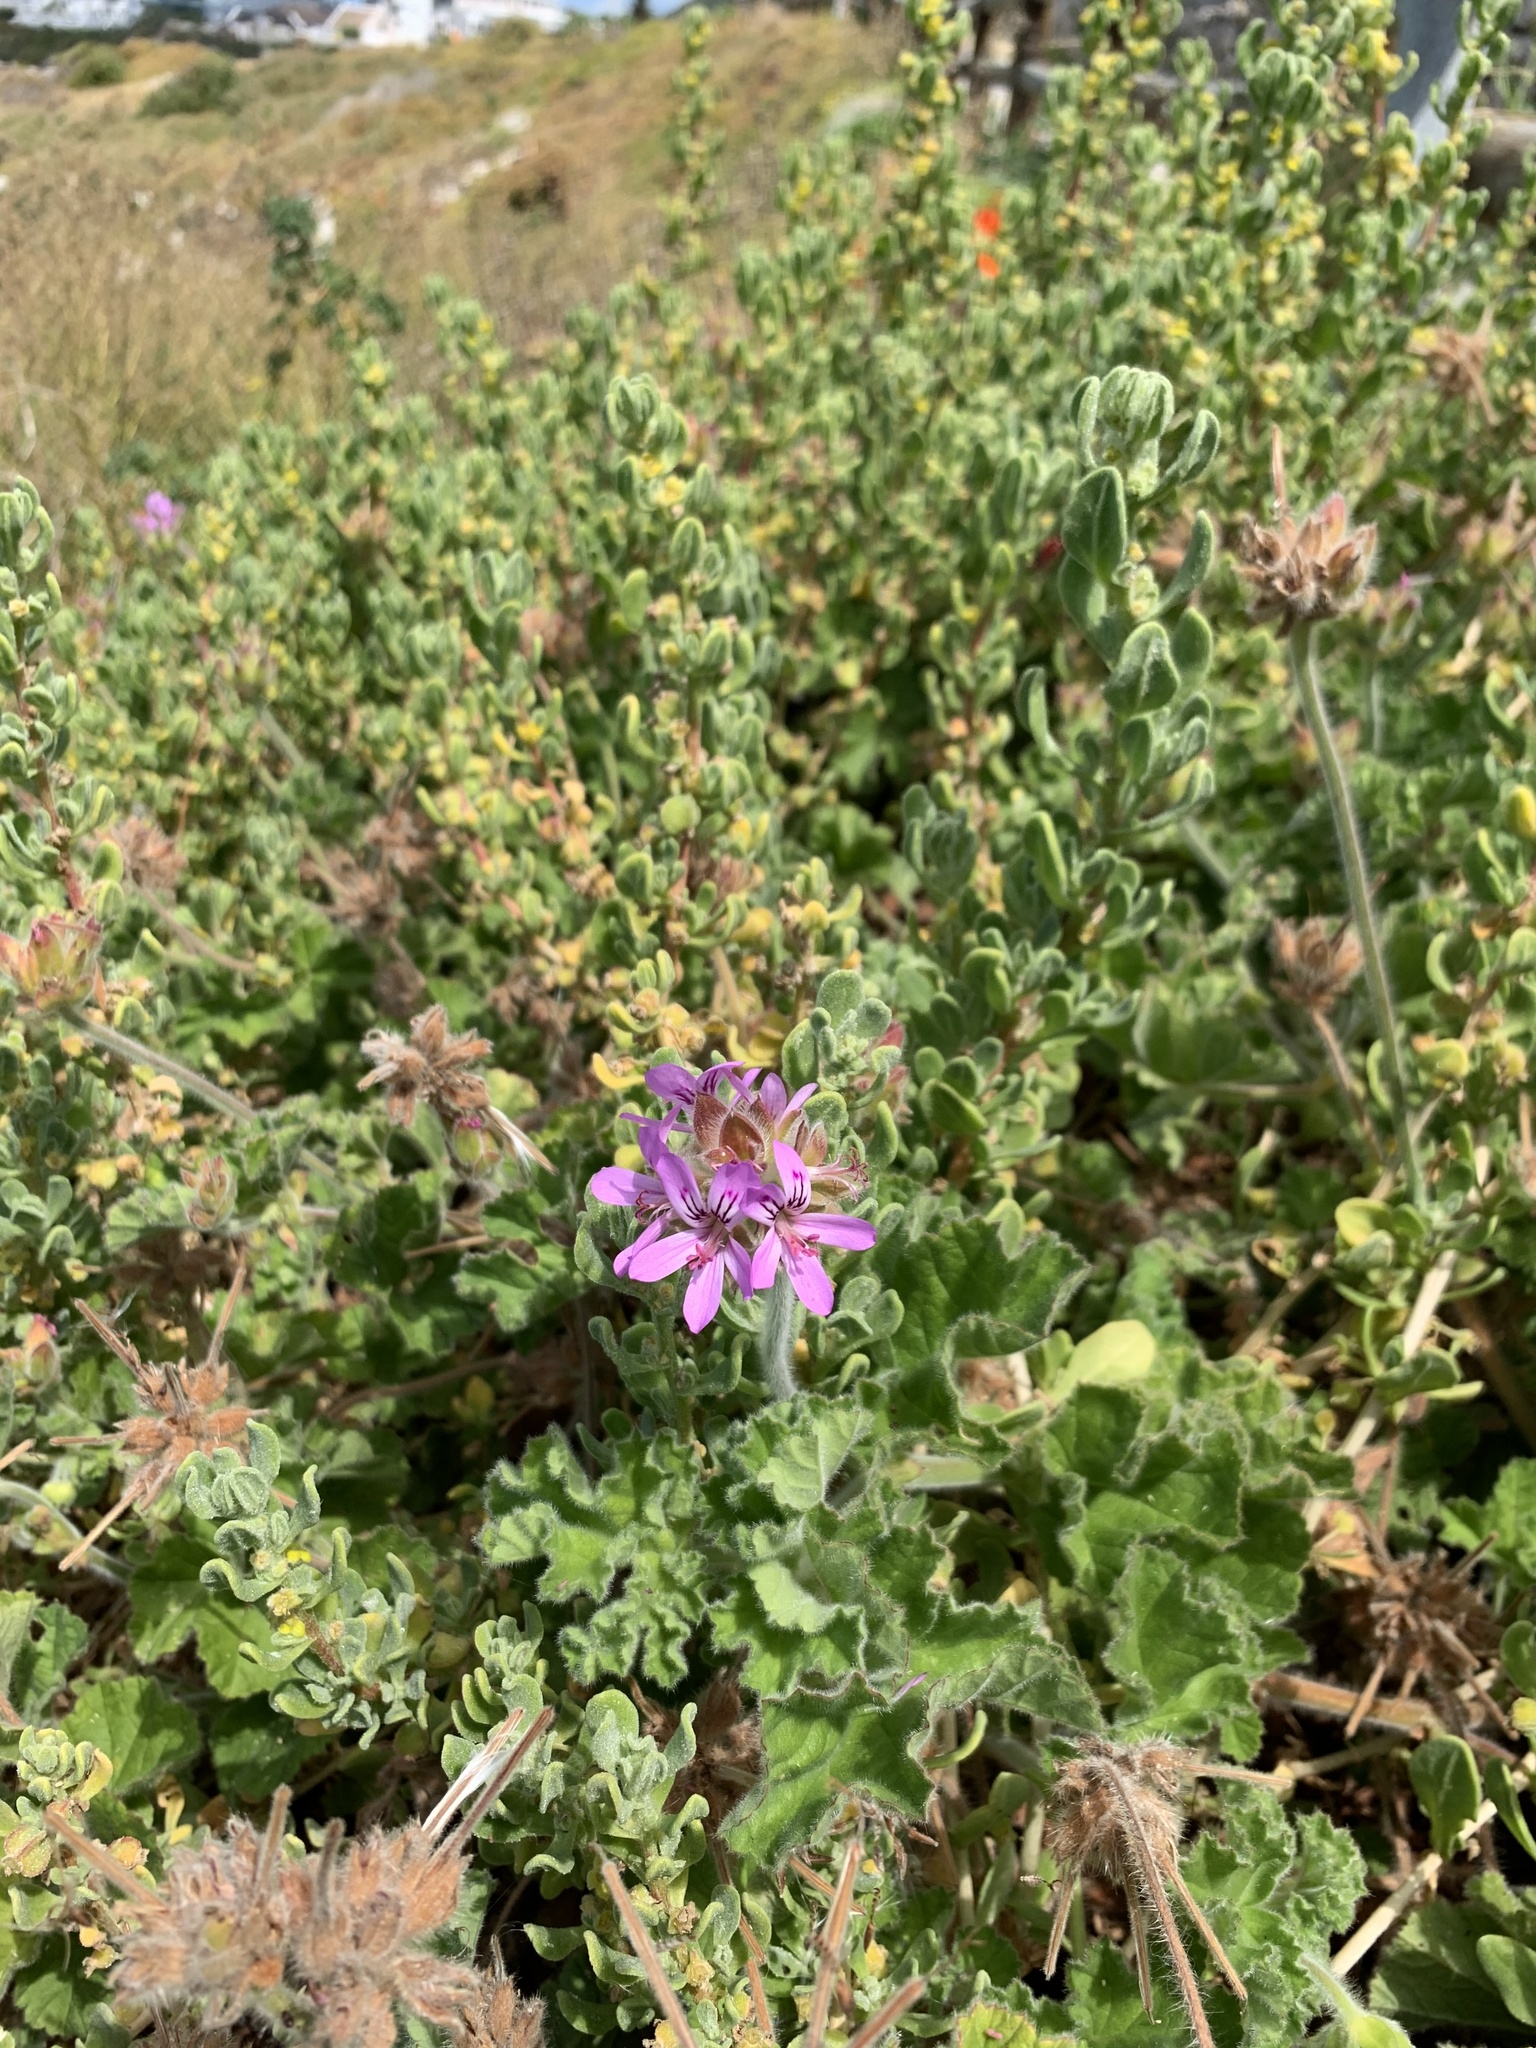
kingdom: Plantae
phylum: Tracheophyta
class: Magnoliopsida
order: Geraniales
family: Geraniaceae
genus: Pelargonium
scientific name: Pelargonium capitatum
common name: Rose scented geranium
